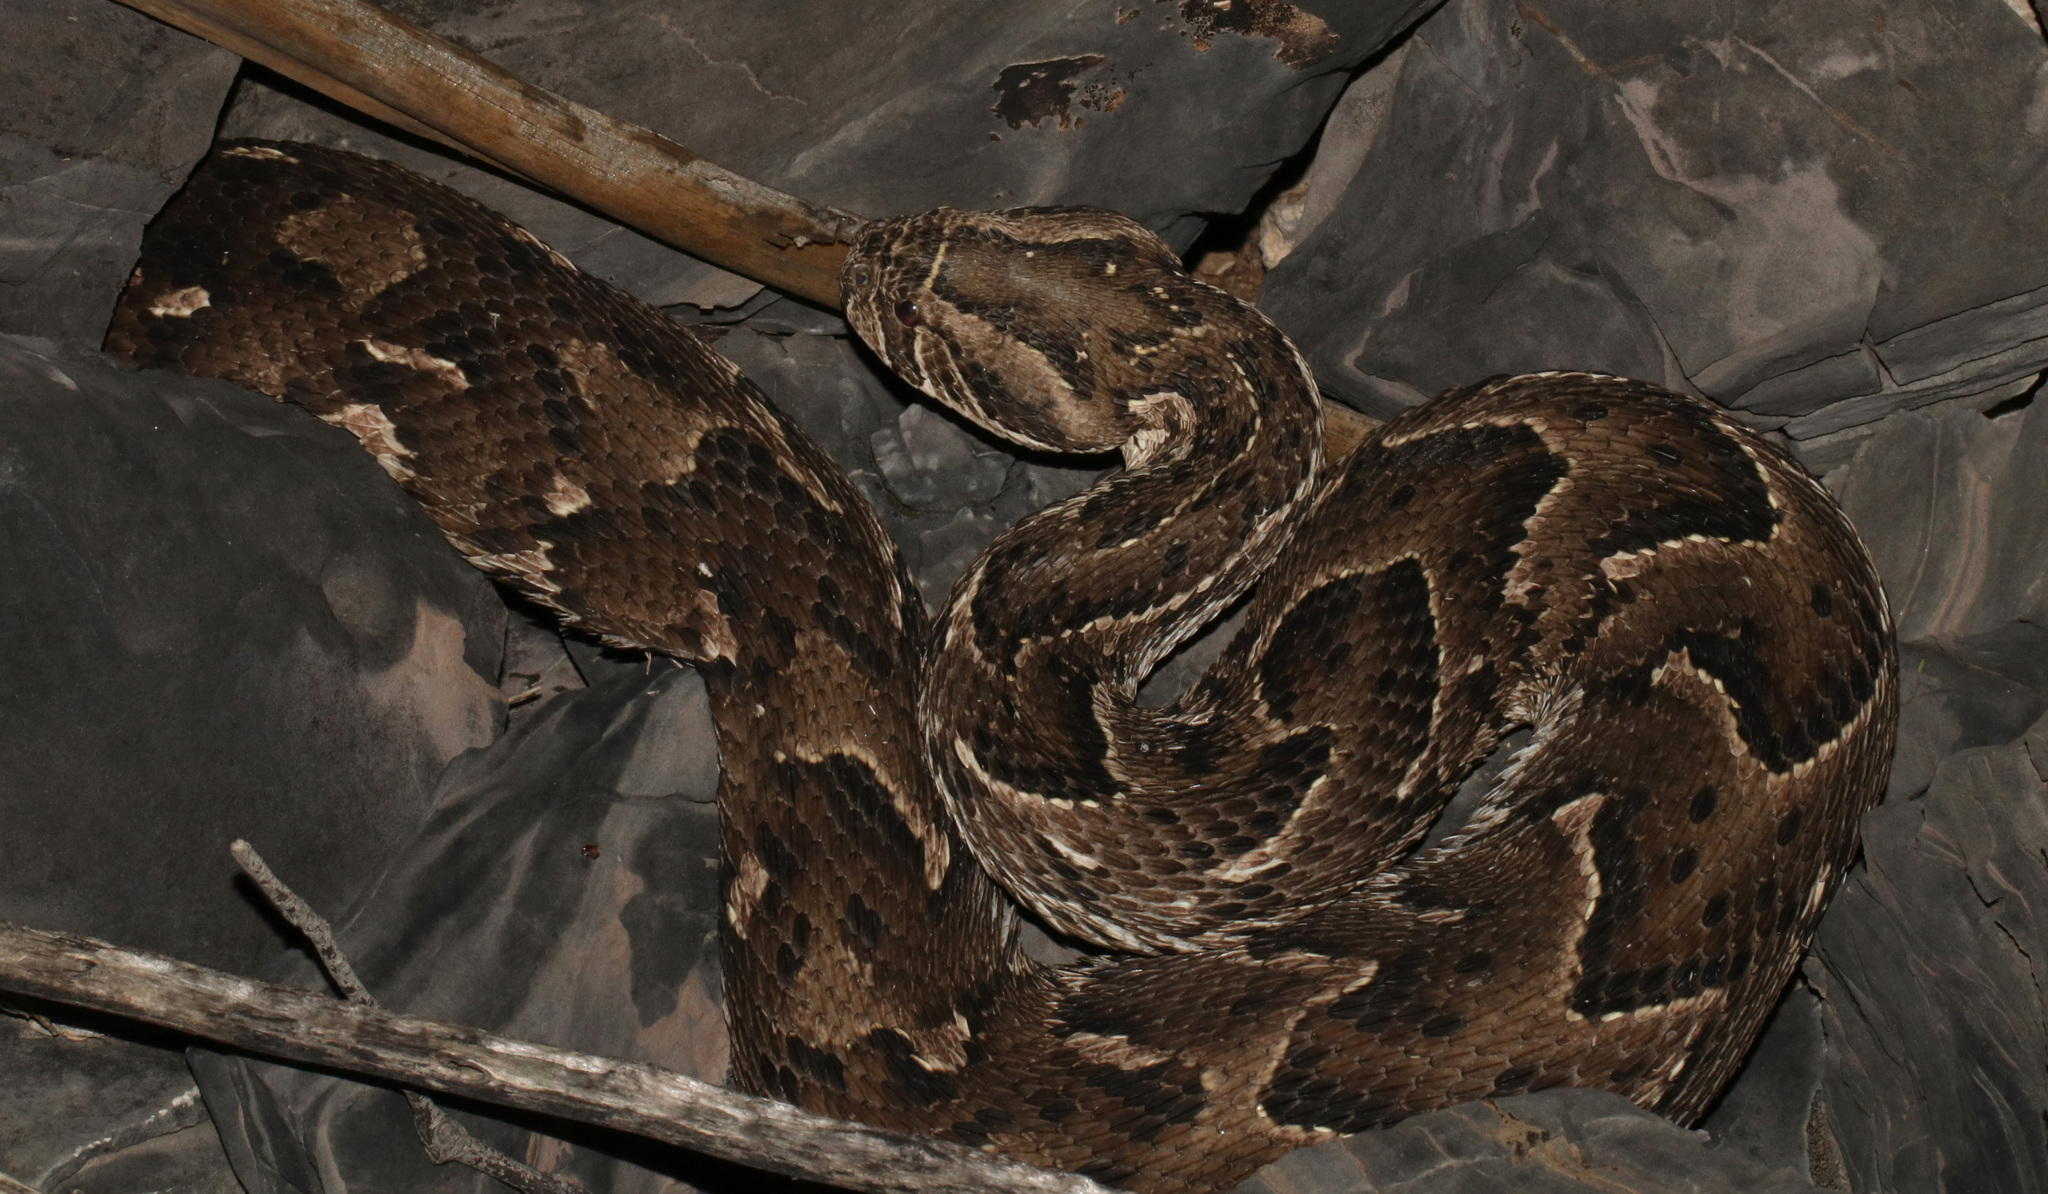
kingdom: Animalia
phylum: Chordata
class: Squamata
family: Viperidae
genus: Bitis
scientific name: Bitis arietans
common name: Puff adder
